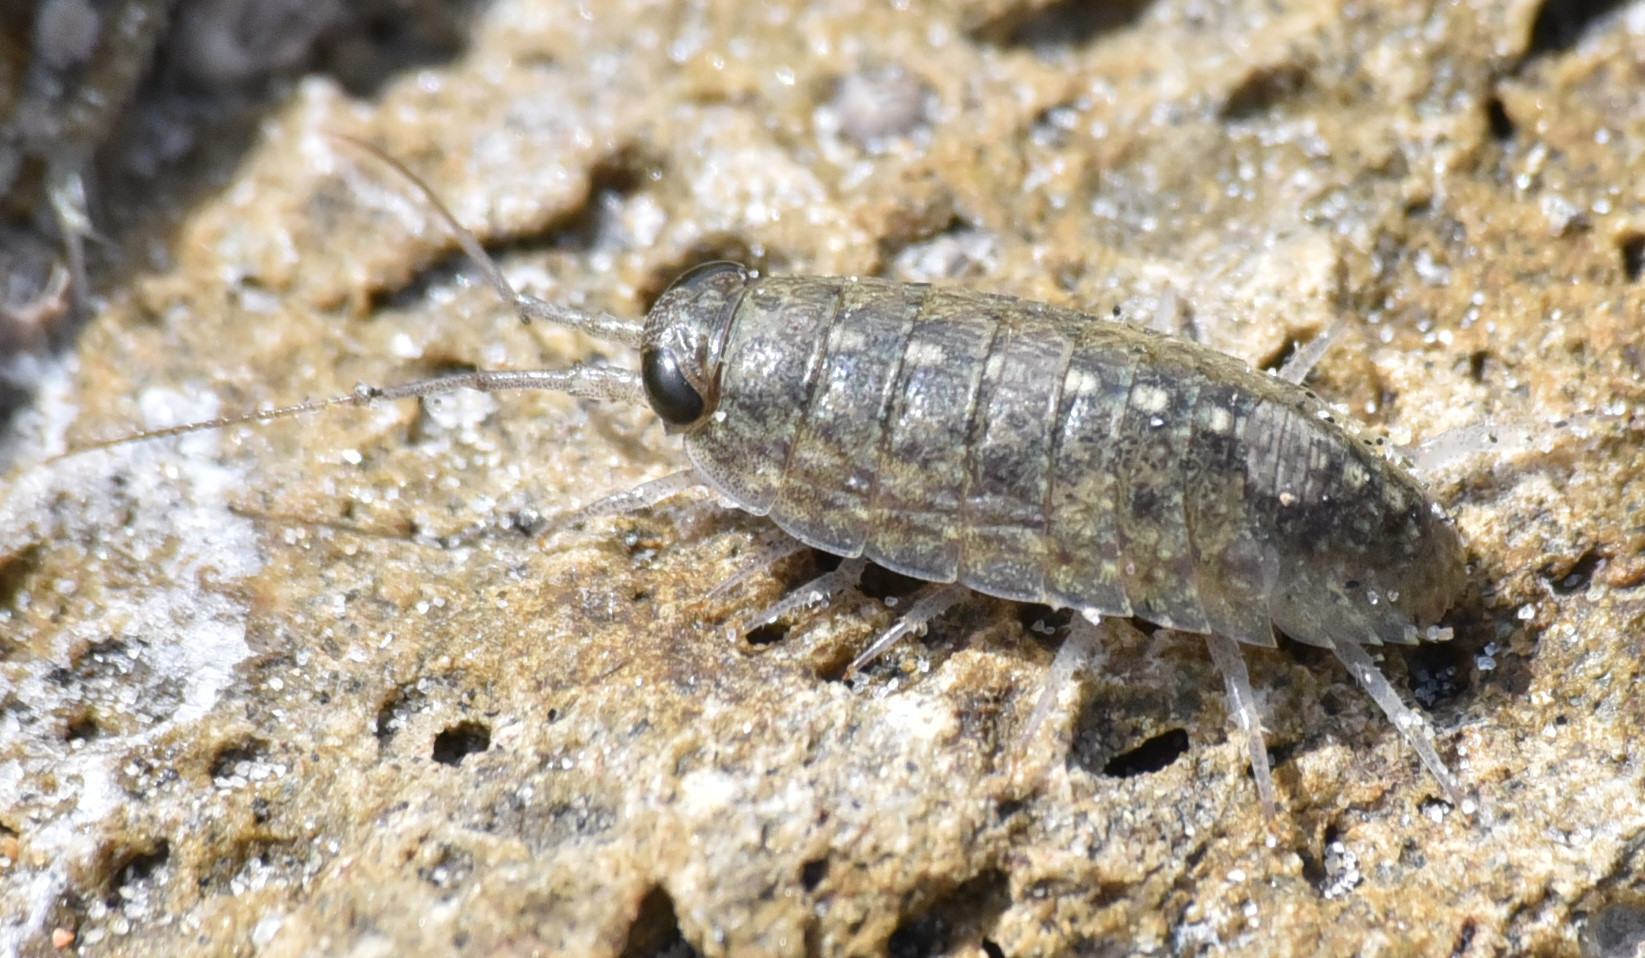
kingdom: Animalia
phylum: Arthropoda
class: Malacostraca
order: Isopoda
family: Ligiidae
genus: Ligia
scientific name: Ligia occidentalis
